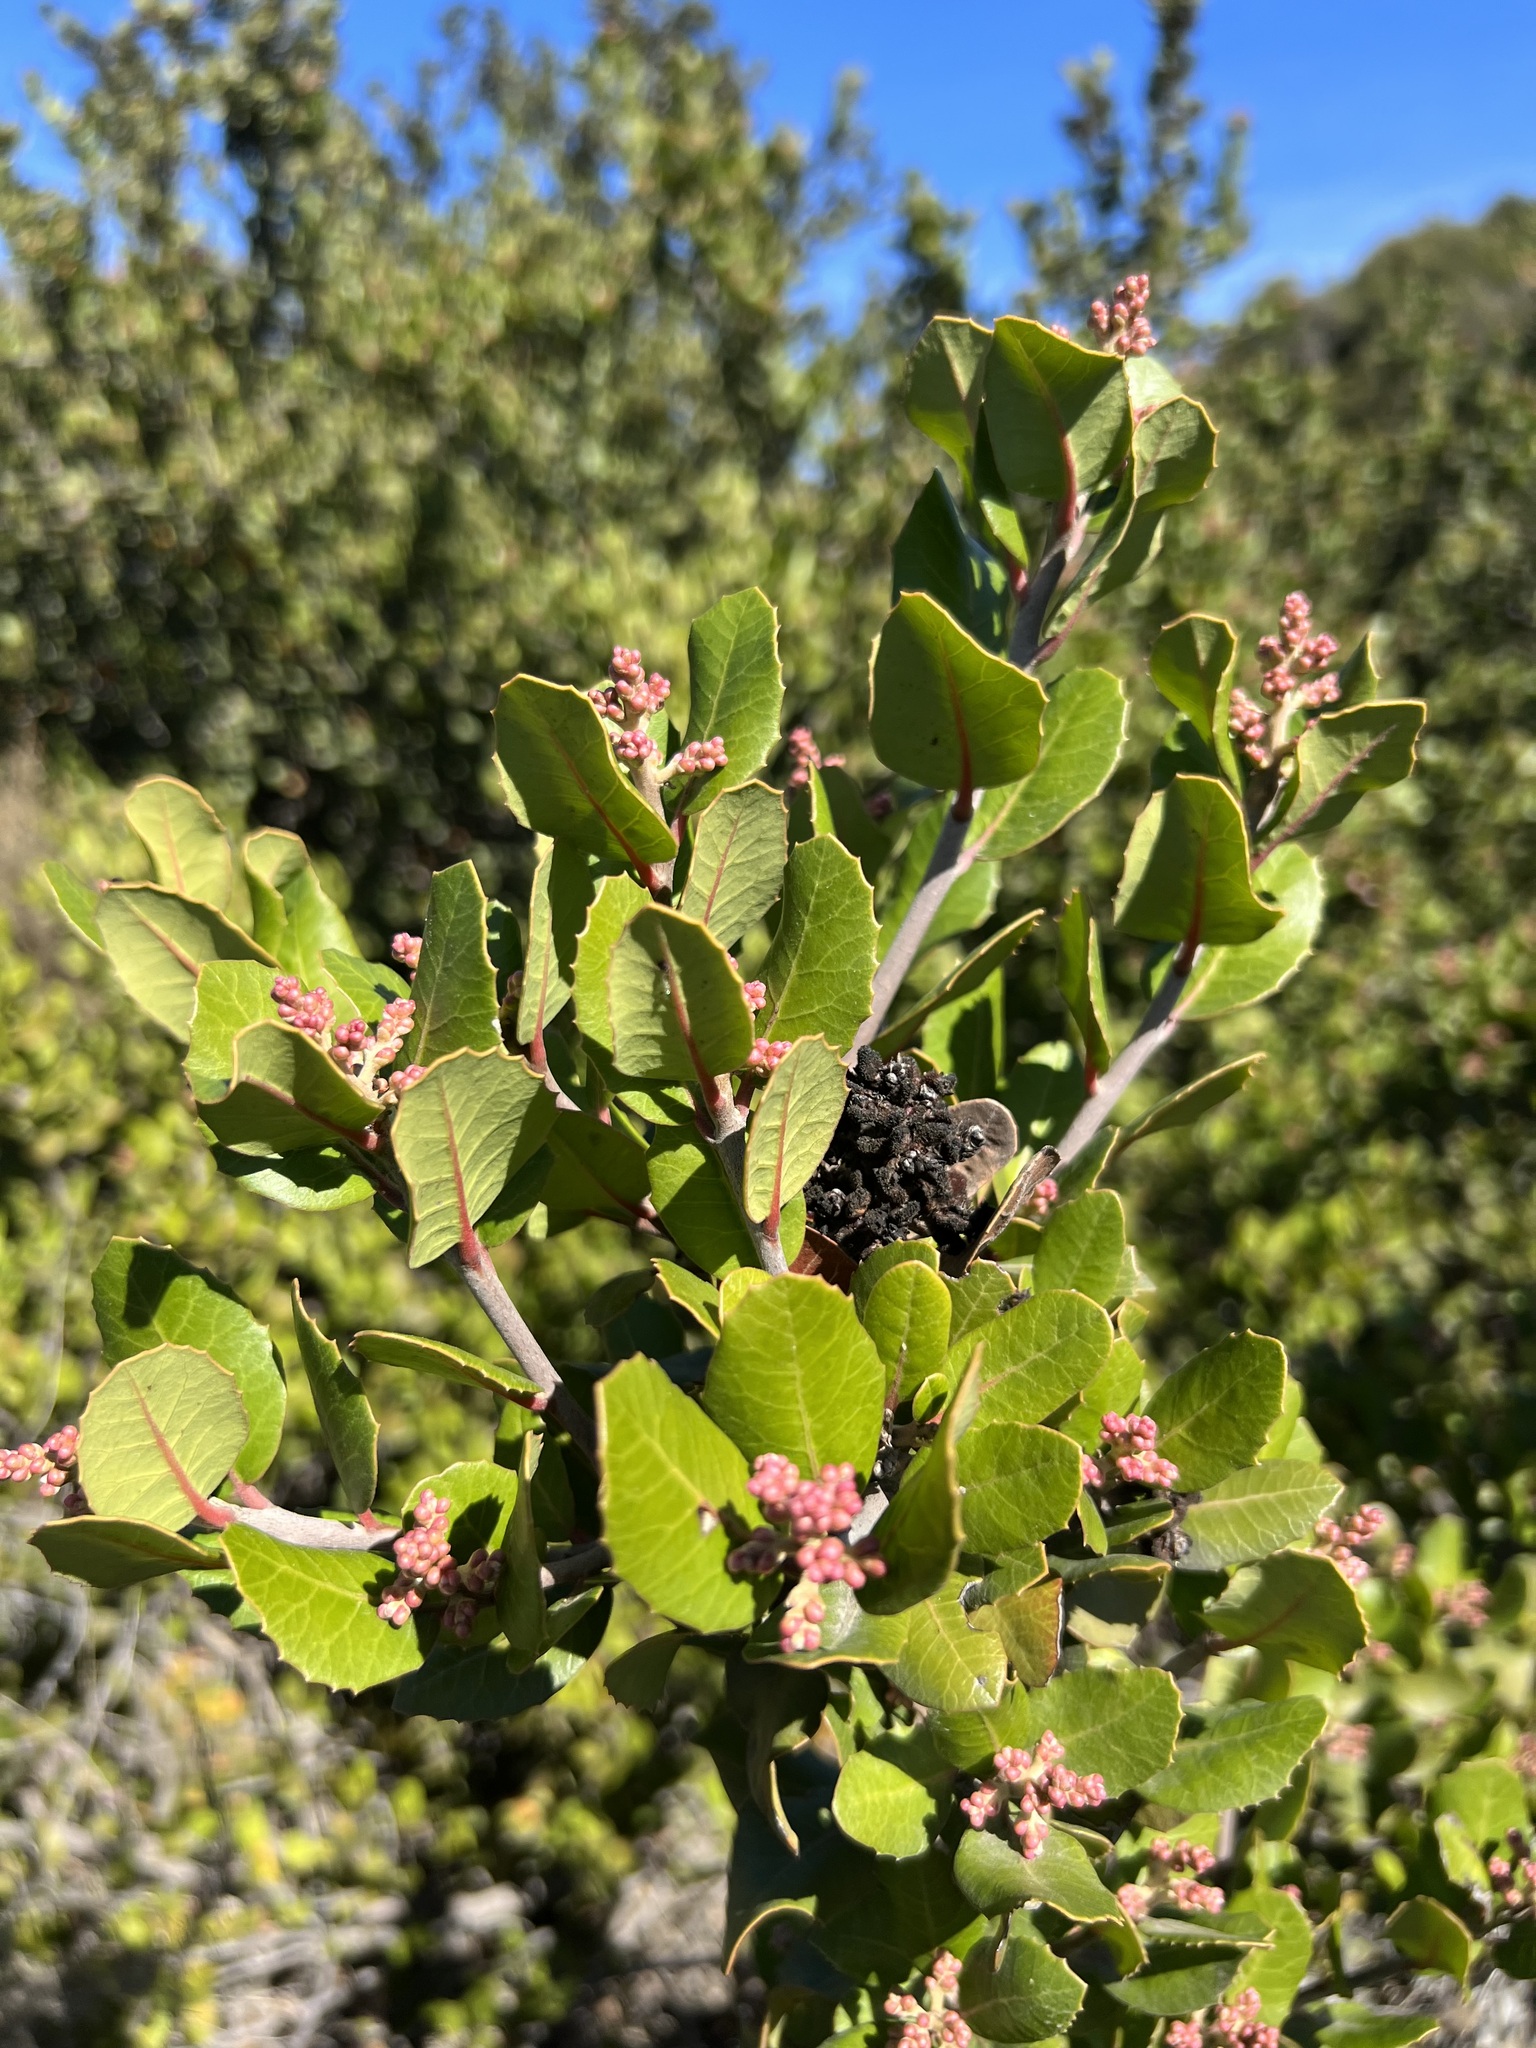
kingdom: Plantae
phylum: Tracheophyta
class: Magnoliopsida
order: Sapindales
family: Anacardiaceae
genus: Rhus
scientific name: Rhus integrifolia
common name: Lemonade sumac
